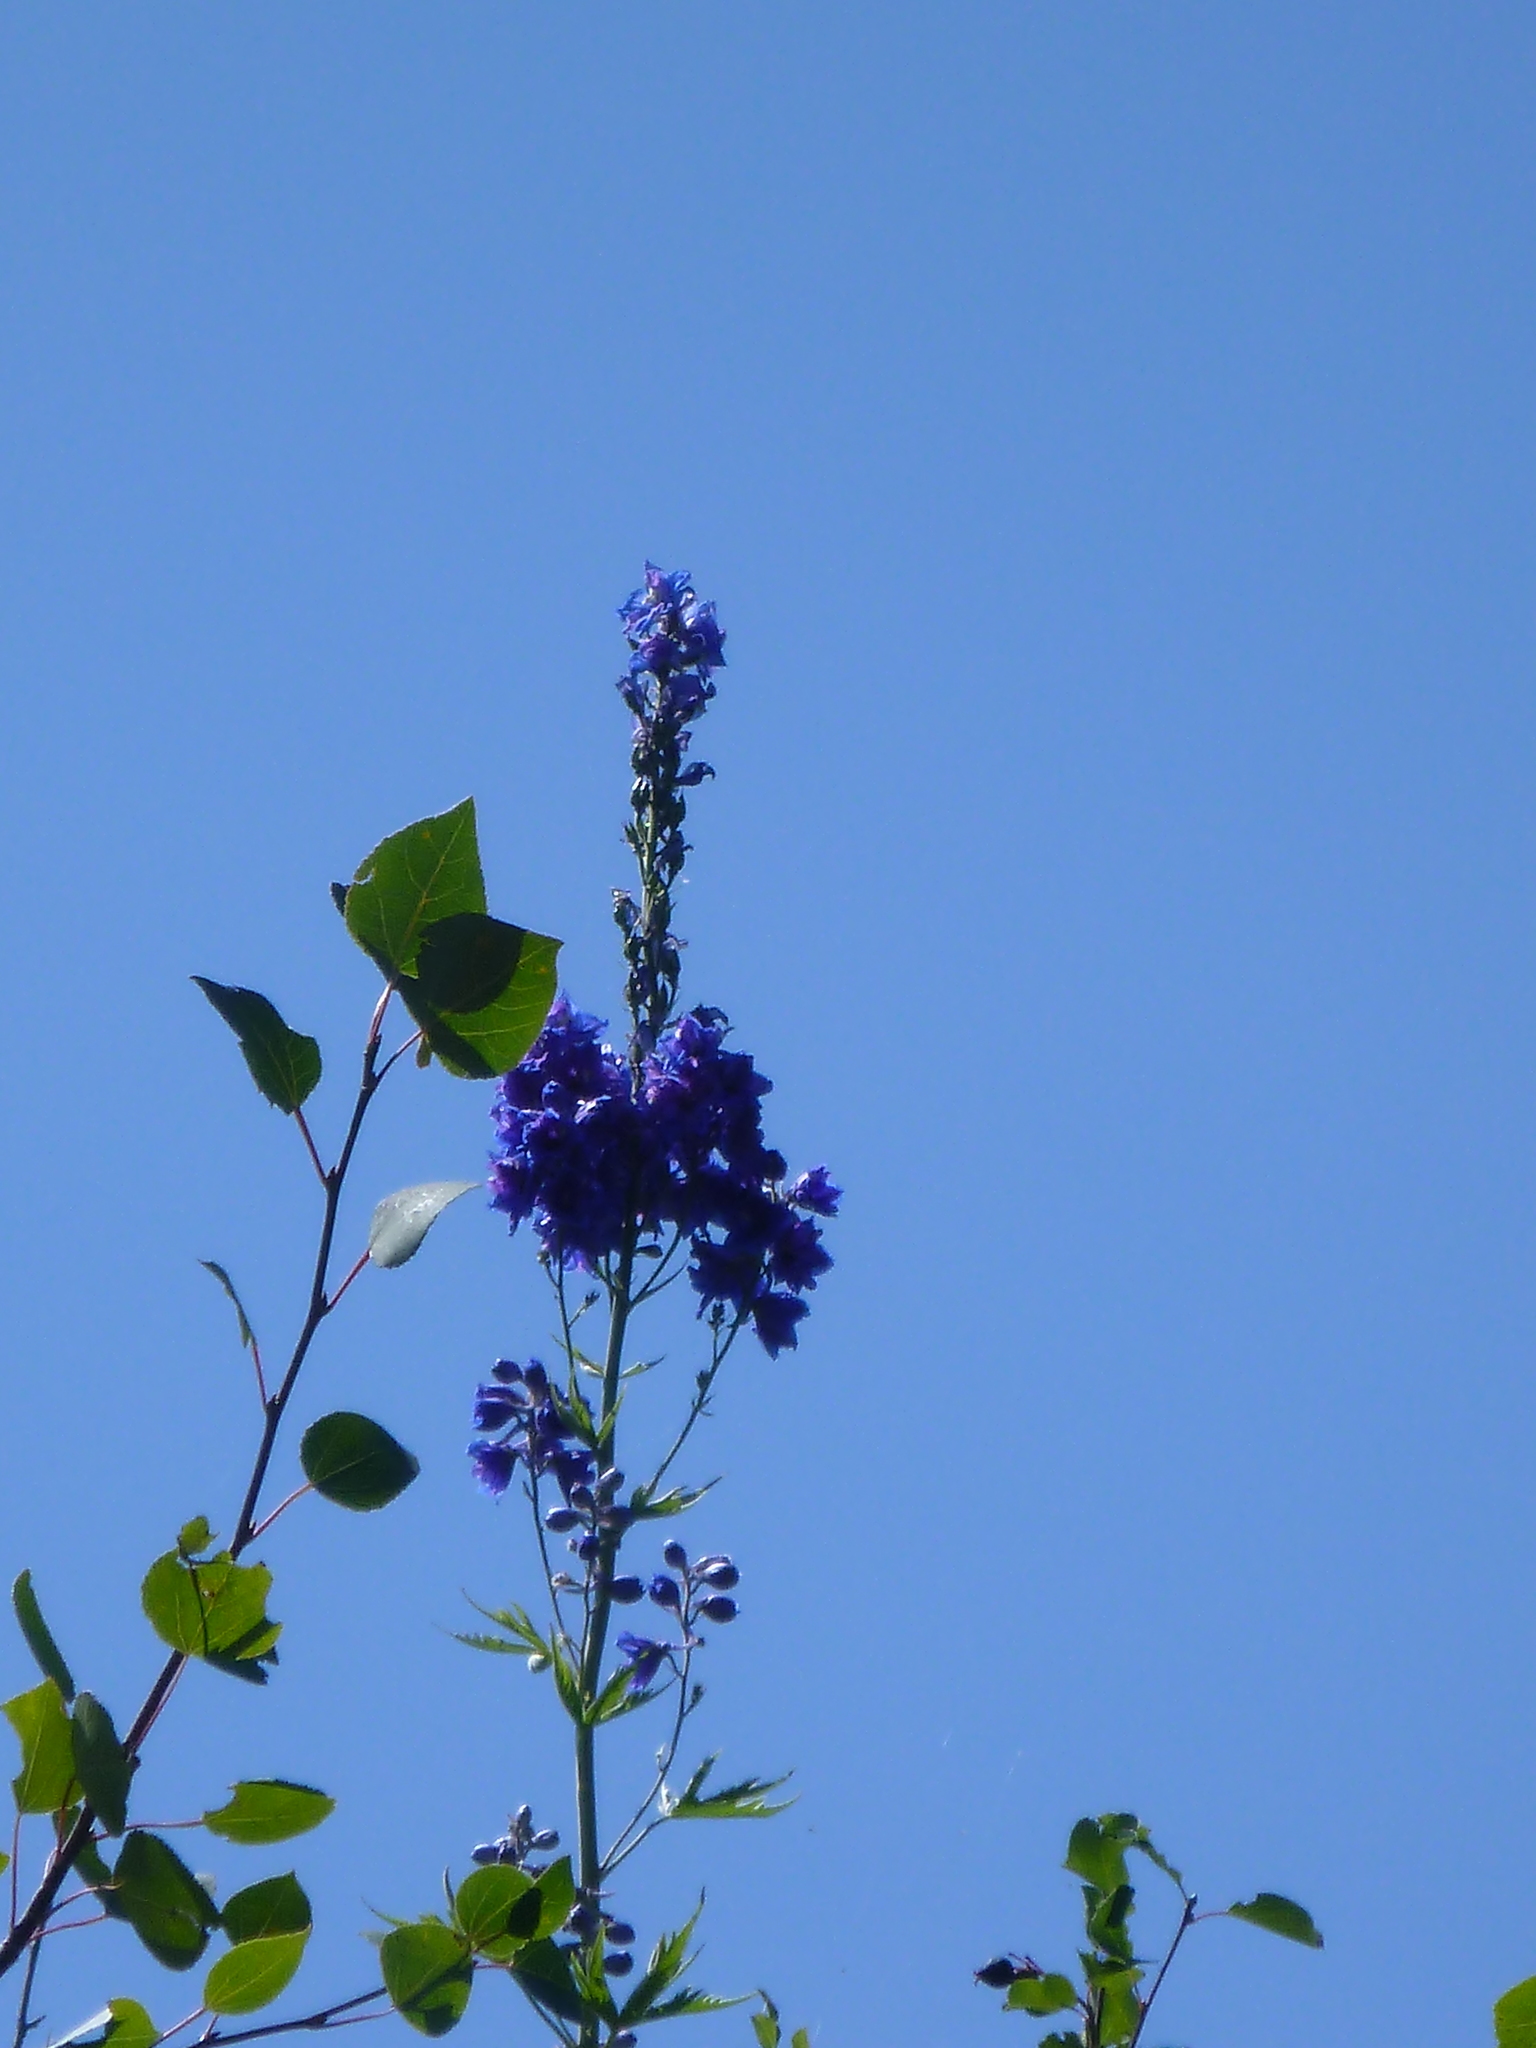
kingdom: Plantae
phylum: Tracheophyta
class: Magnoliopsida
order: Ranunculales
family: Ranunculaceae
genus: Delphinium
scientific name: Delphinium cultorum
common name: Garden delphinium
